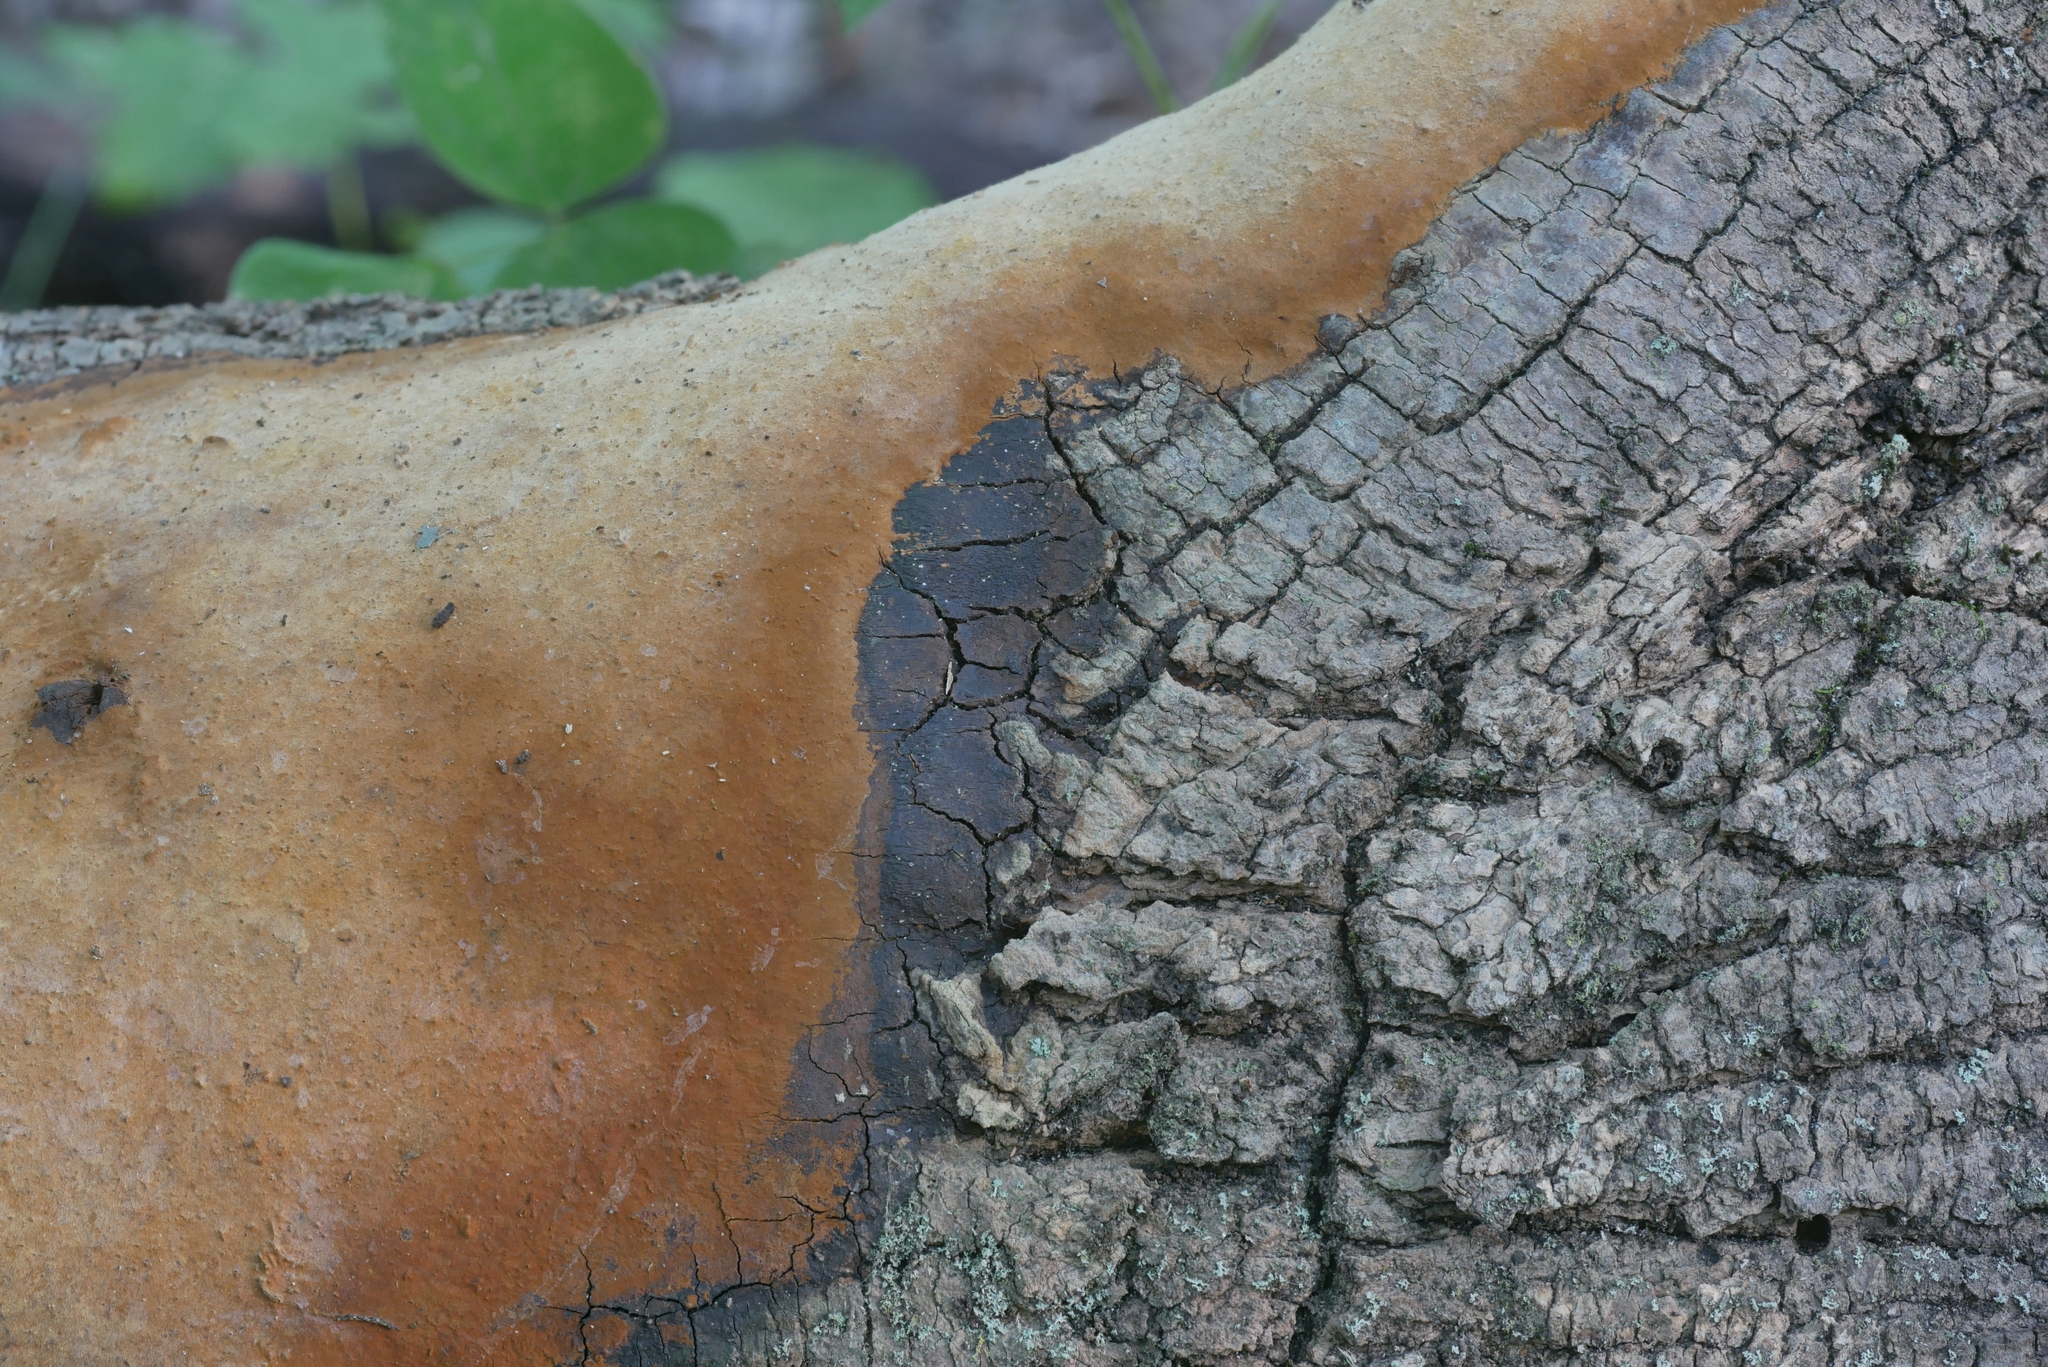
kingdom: Fungi
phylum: Basidiomycota
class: Agaricomycetes
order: Hymenochaetales
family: Hymenochaetaceae
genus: Fomitiporia
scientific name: Fomitiporia ignea
